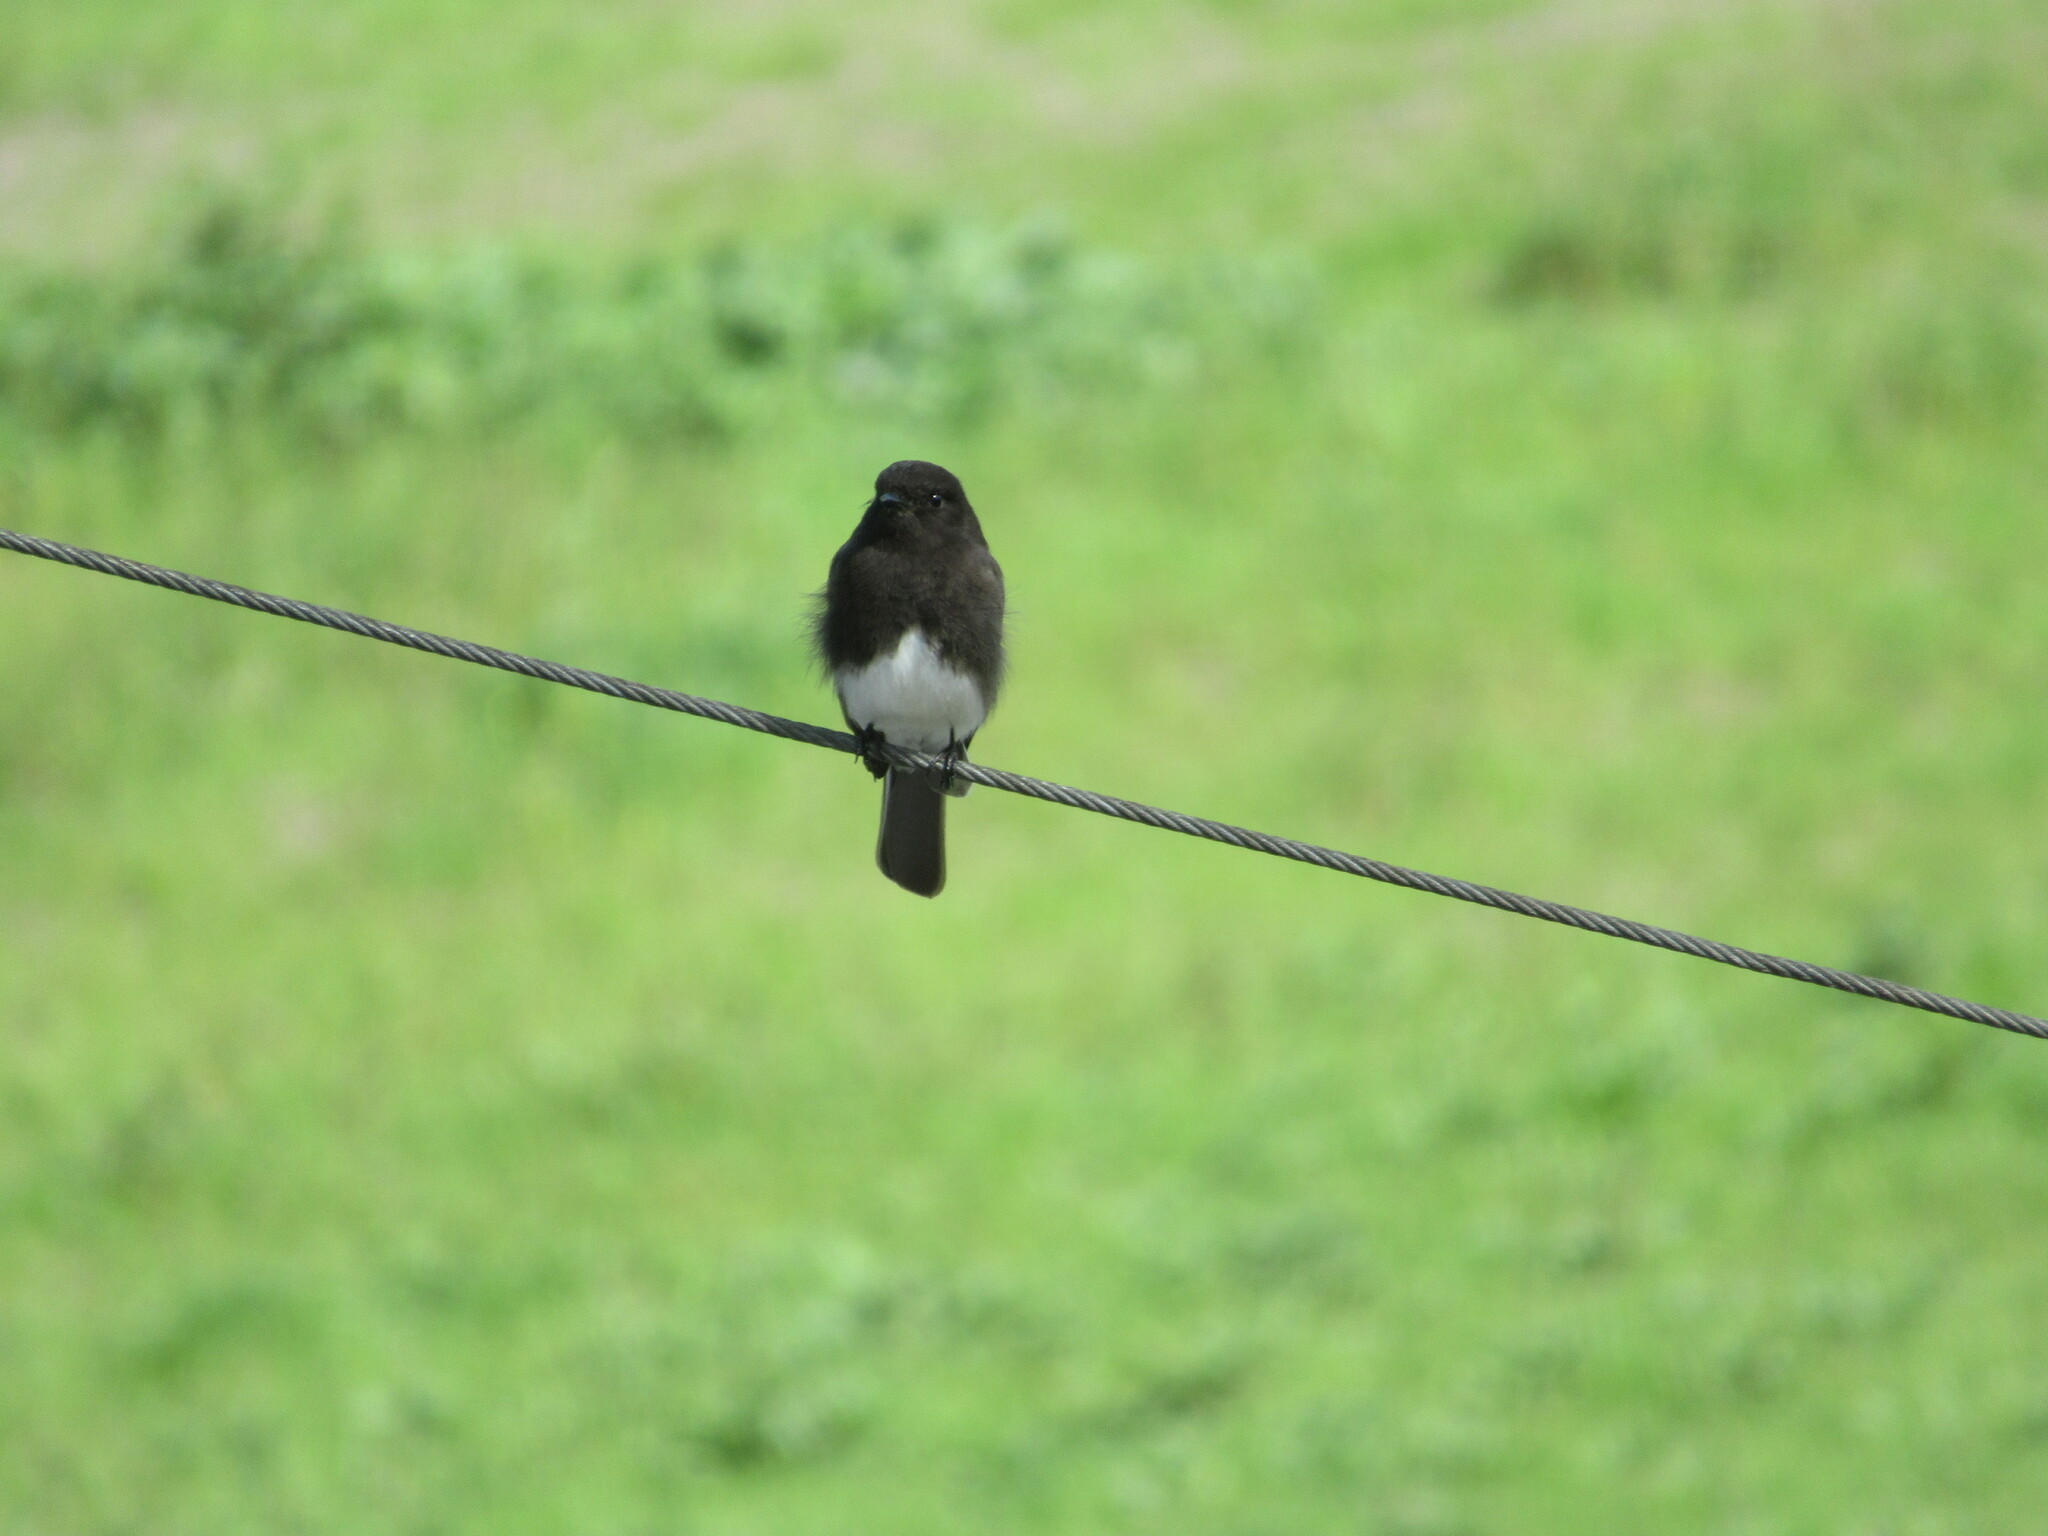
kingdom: Animalia
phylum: Chordata
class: Aves
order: Passeriformes
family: Tyrannidae
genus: Sayornis
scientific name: Sayornis nigricans
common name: Black phoebe
